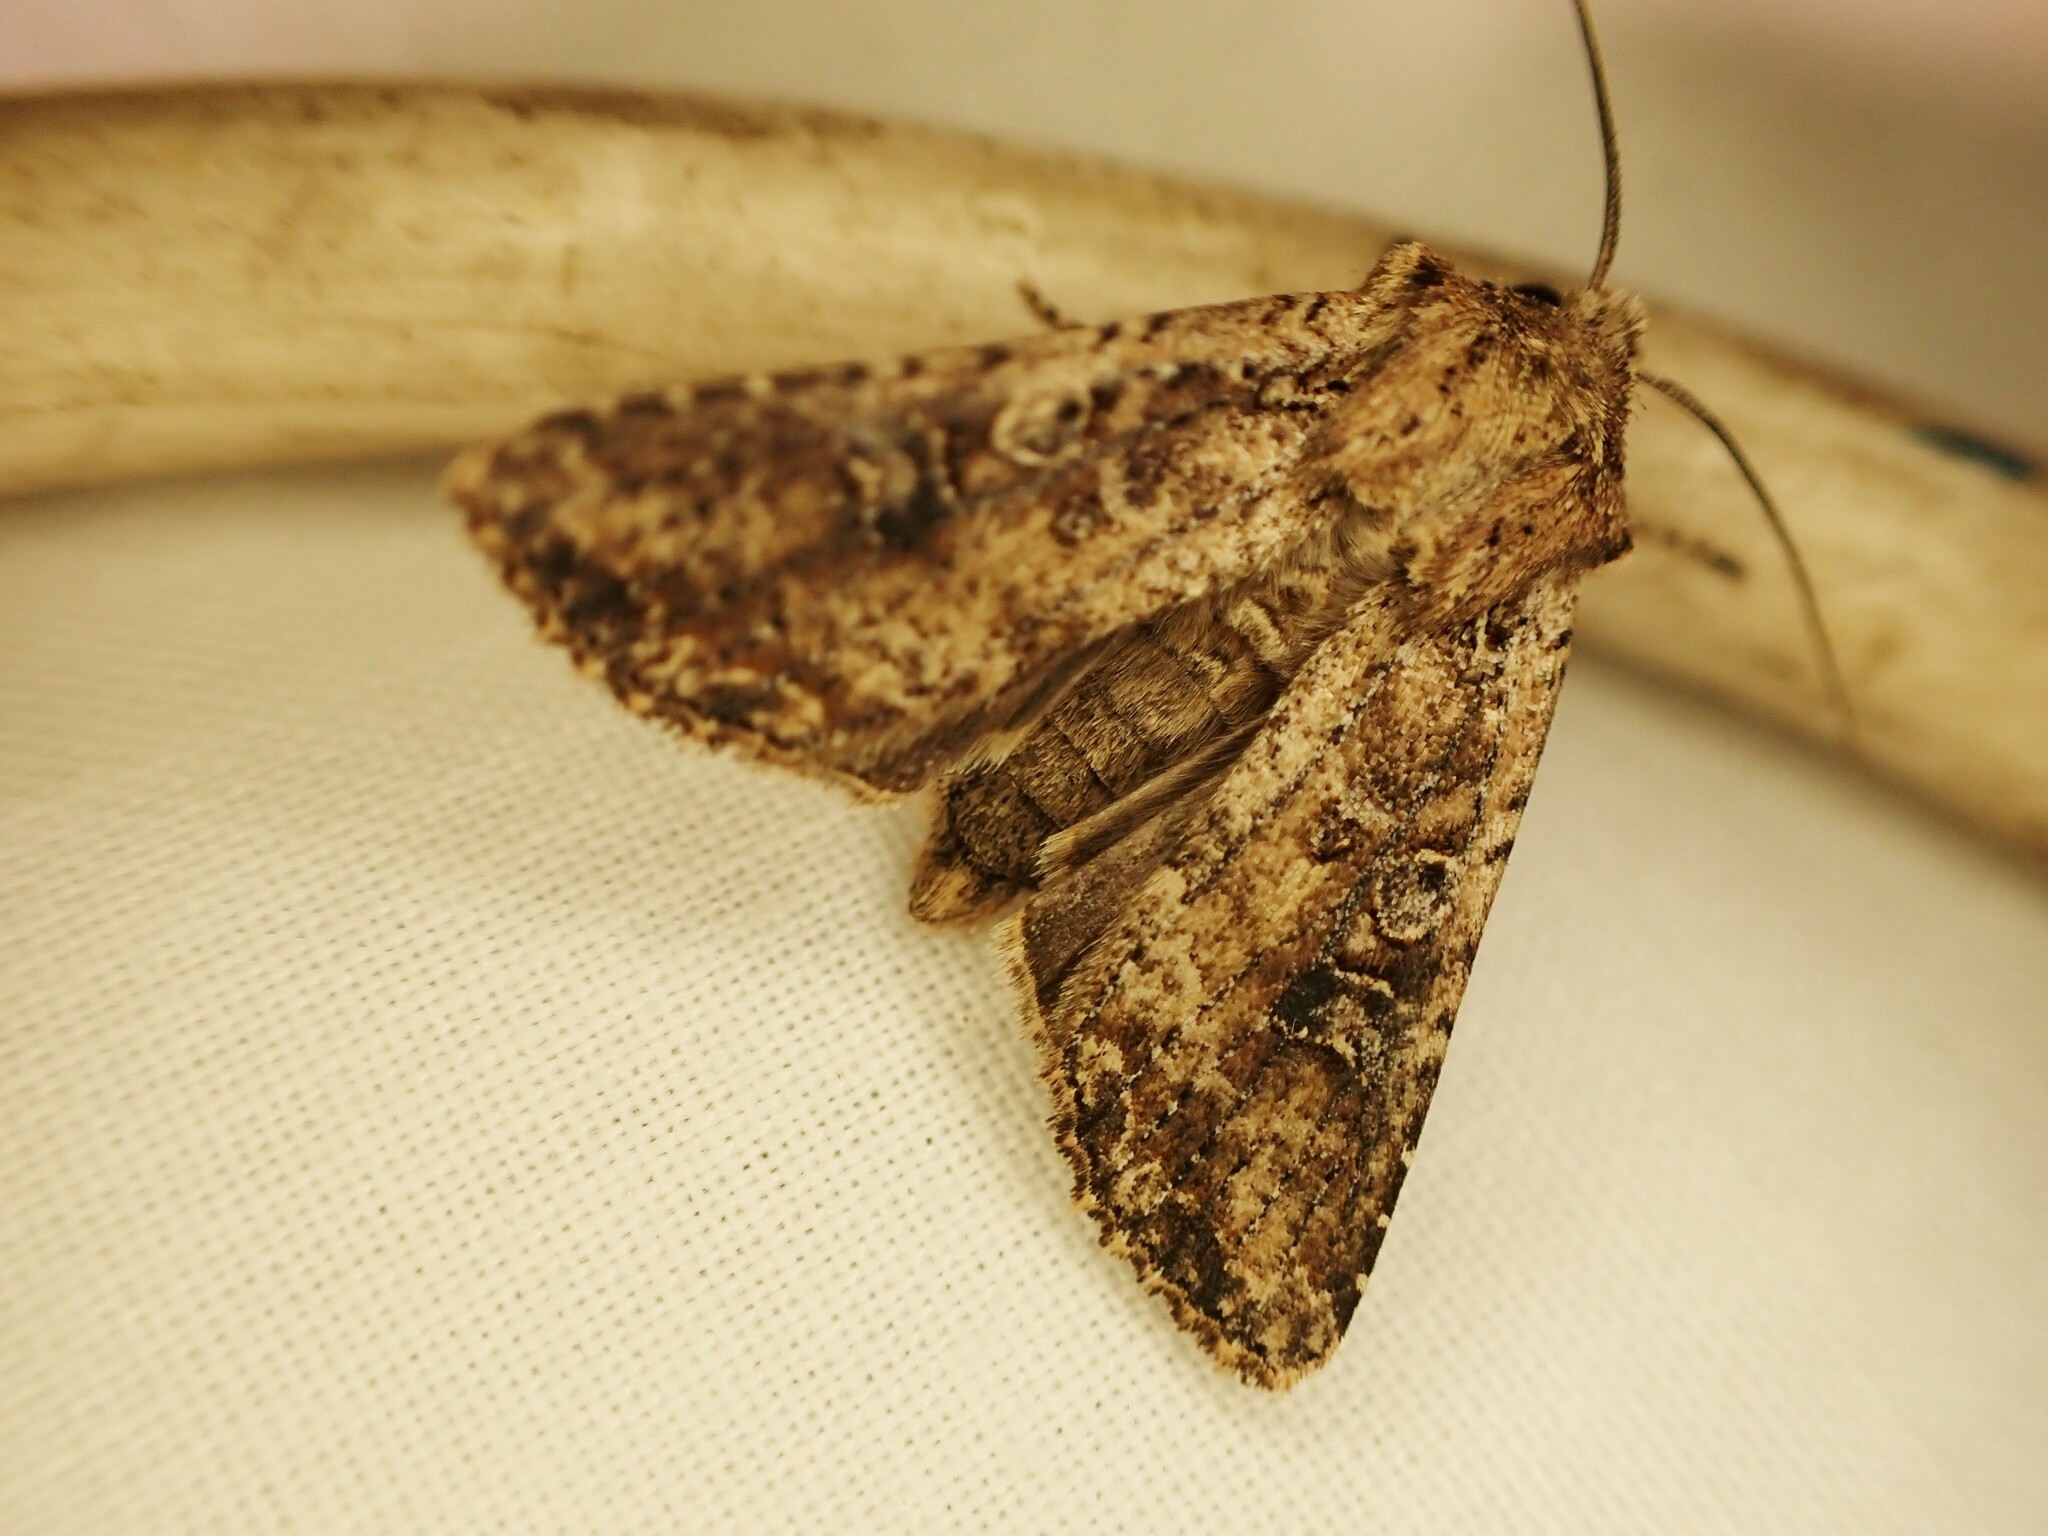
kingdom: Animalia
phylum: Arthropoda
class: Insecta
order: Lepidoptera
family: Noctuidae
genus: Ichneutica
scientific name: Ichneutica morosa
